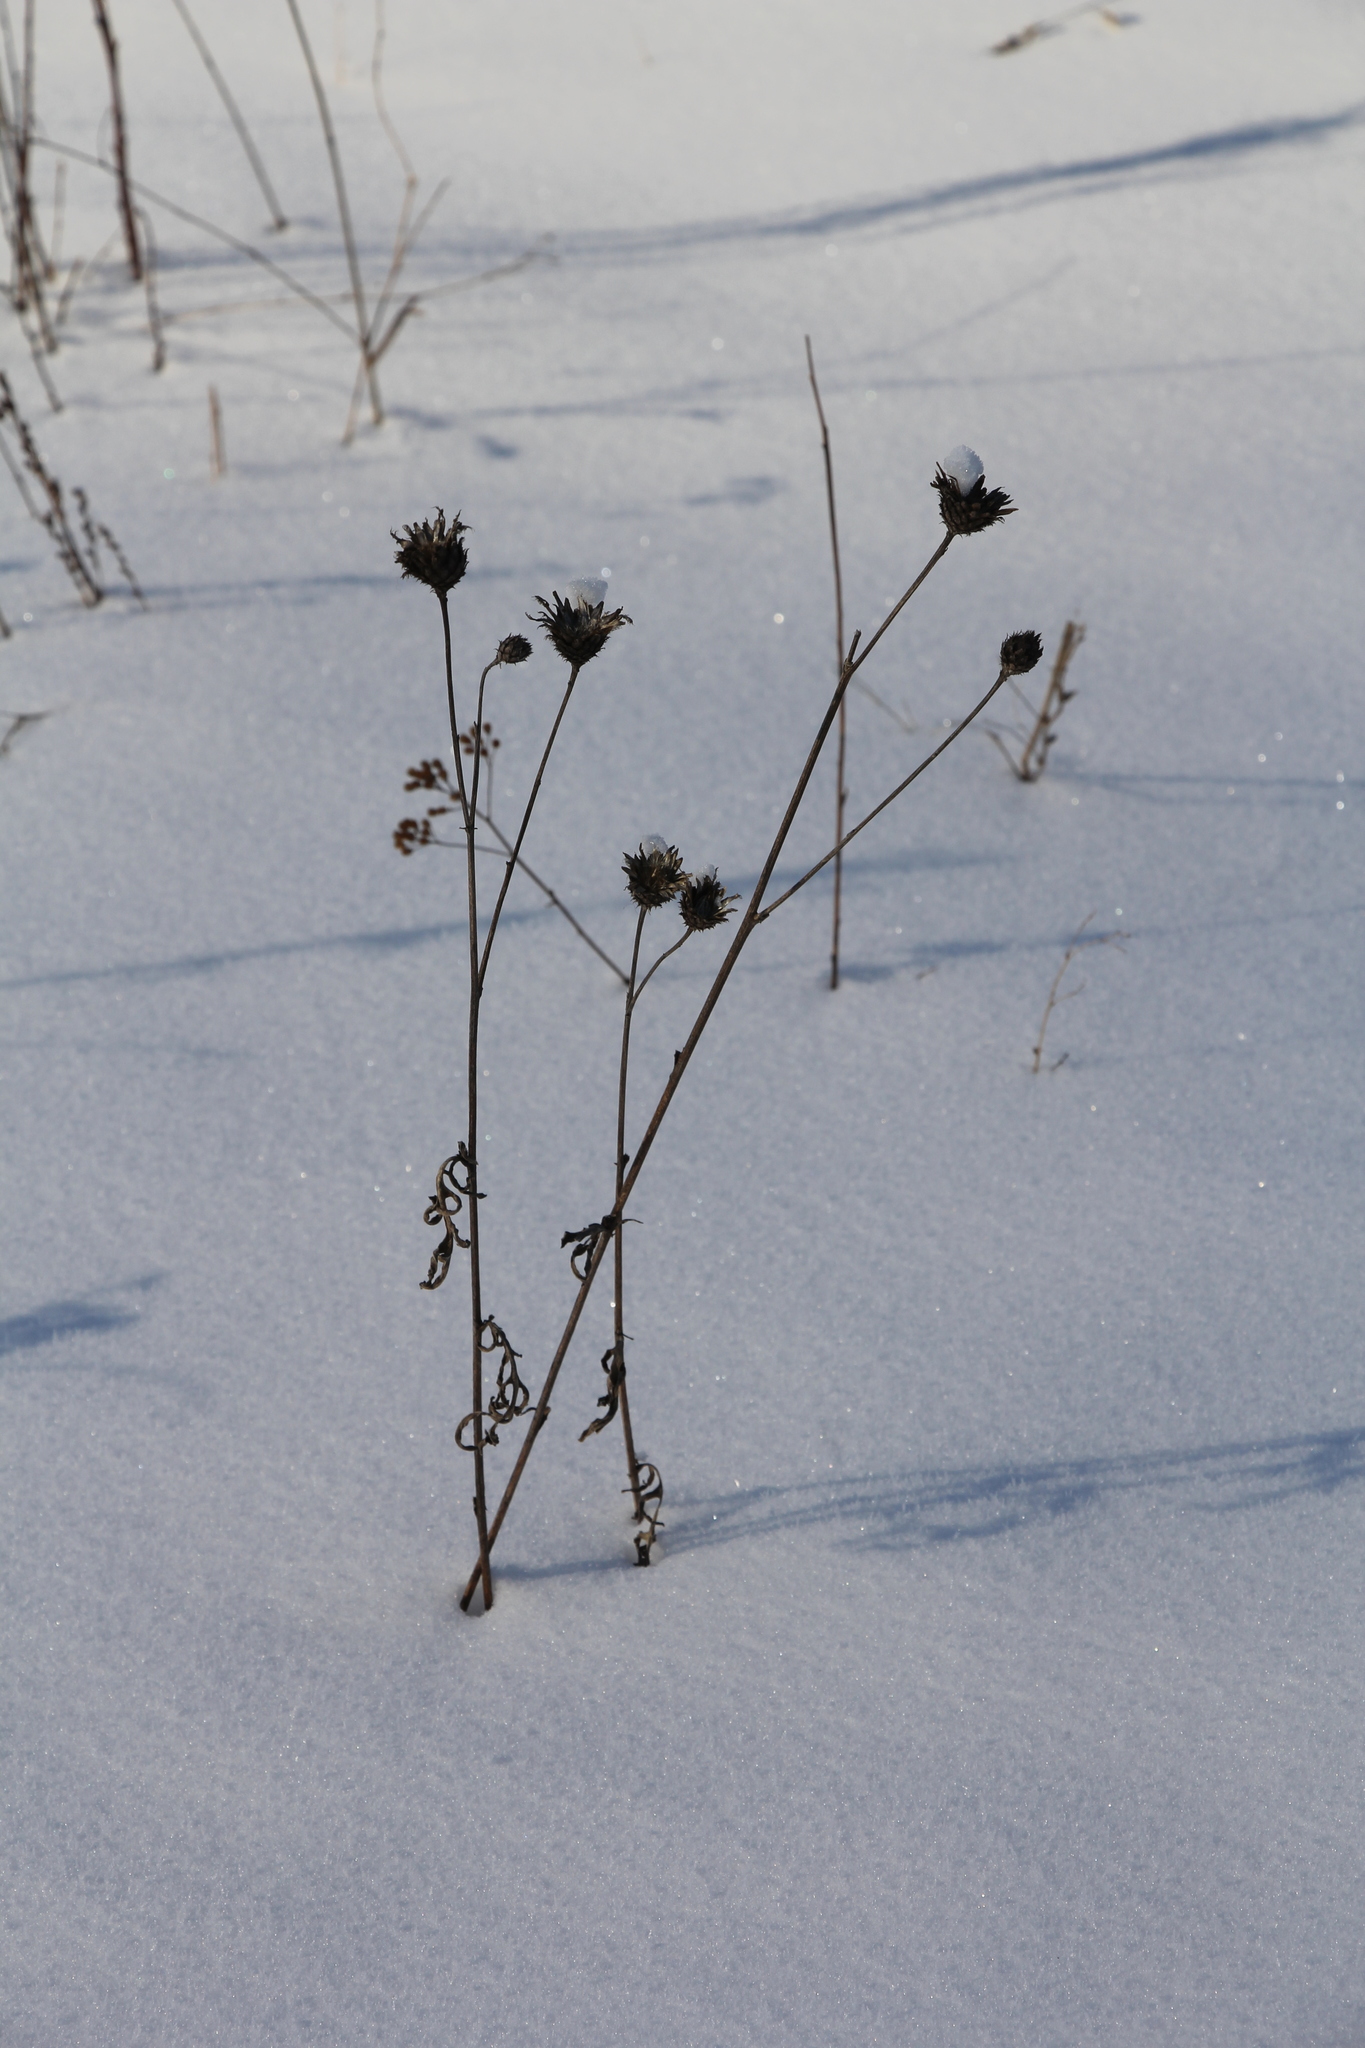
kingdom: Plantae
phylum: Tracheophyta
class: Magnoliopsida
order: Asterales
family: Asteraceae
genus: Centaurea
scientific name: Centaurea scabiosa
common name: Greater knapweed
